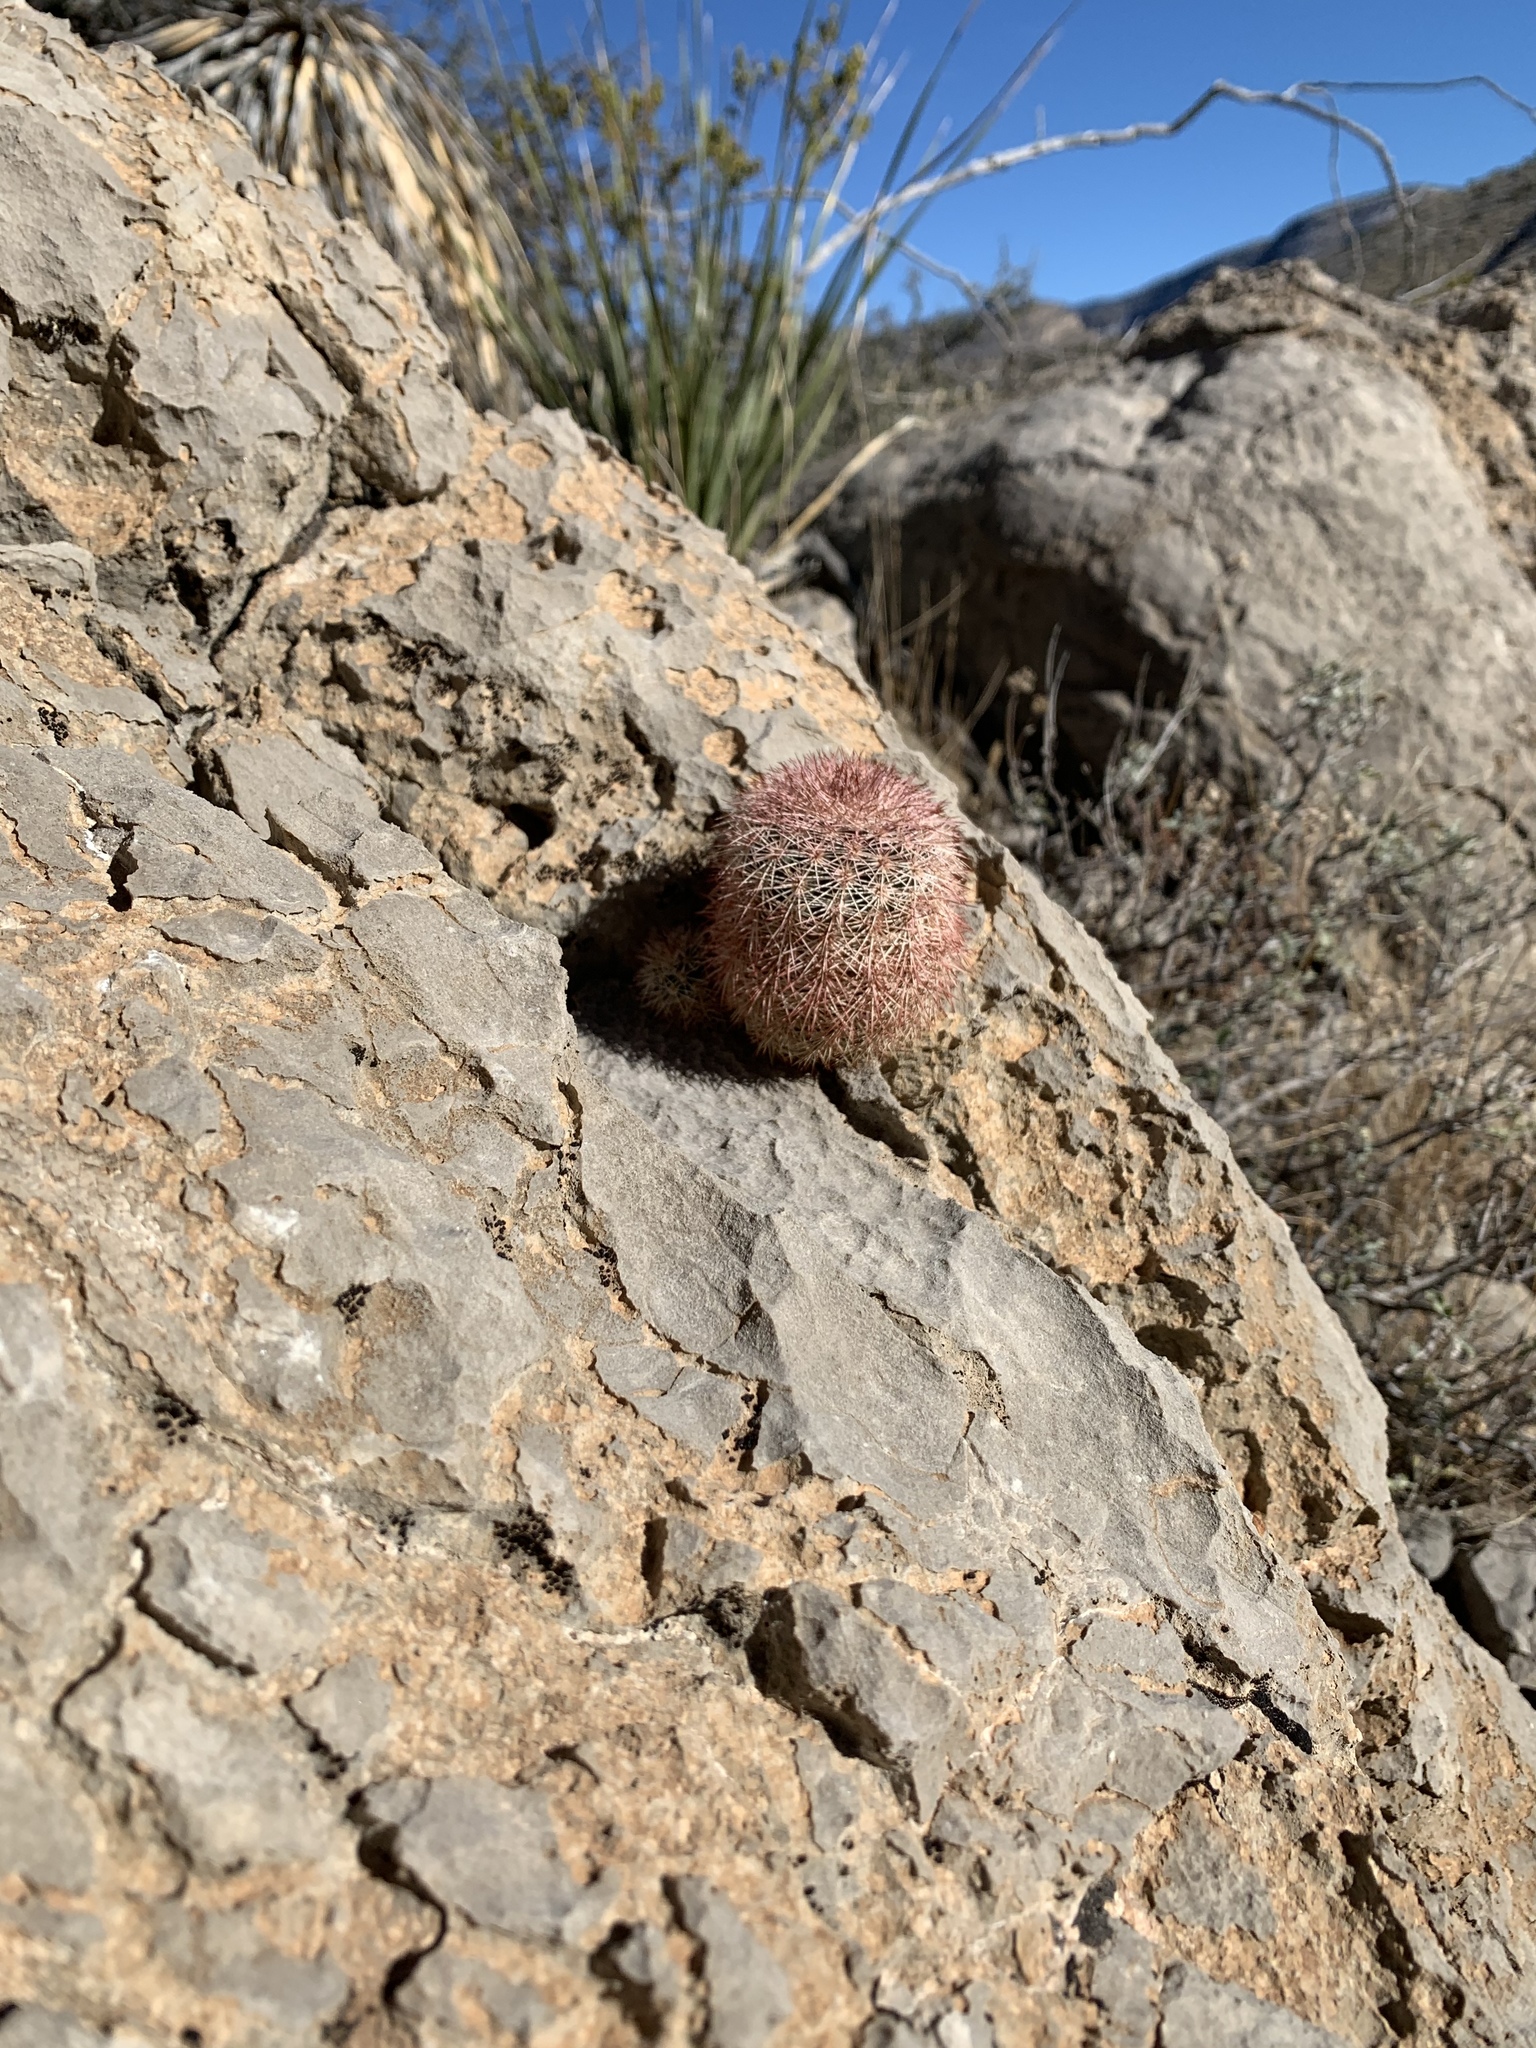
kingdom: Plantae
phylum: Tracheophyta
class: Magnoliopsida
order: Caryophyllales
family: Cactaceae
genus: Echinocereus
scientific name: Echinocereus dasyacanthus
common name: Spiny hedgehog cactus
